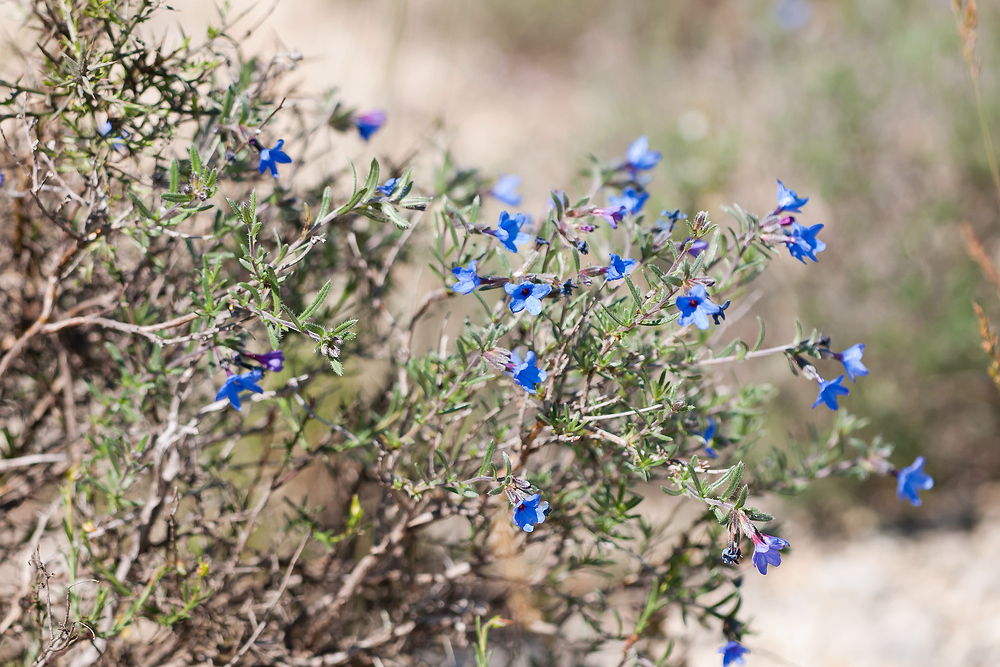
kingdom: Plantae
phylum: Tracheophyta
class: Magnoliopsida
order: Boraginales
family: Boraginaceae
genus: Lithodora
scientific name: Lithodora fruticosa
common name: Shrubby gromwell
